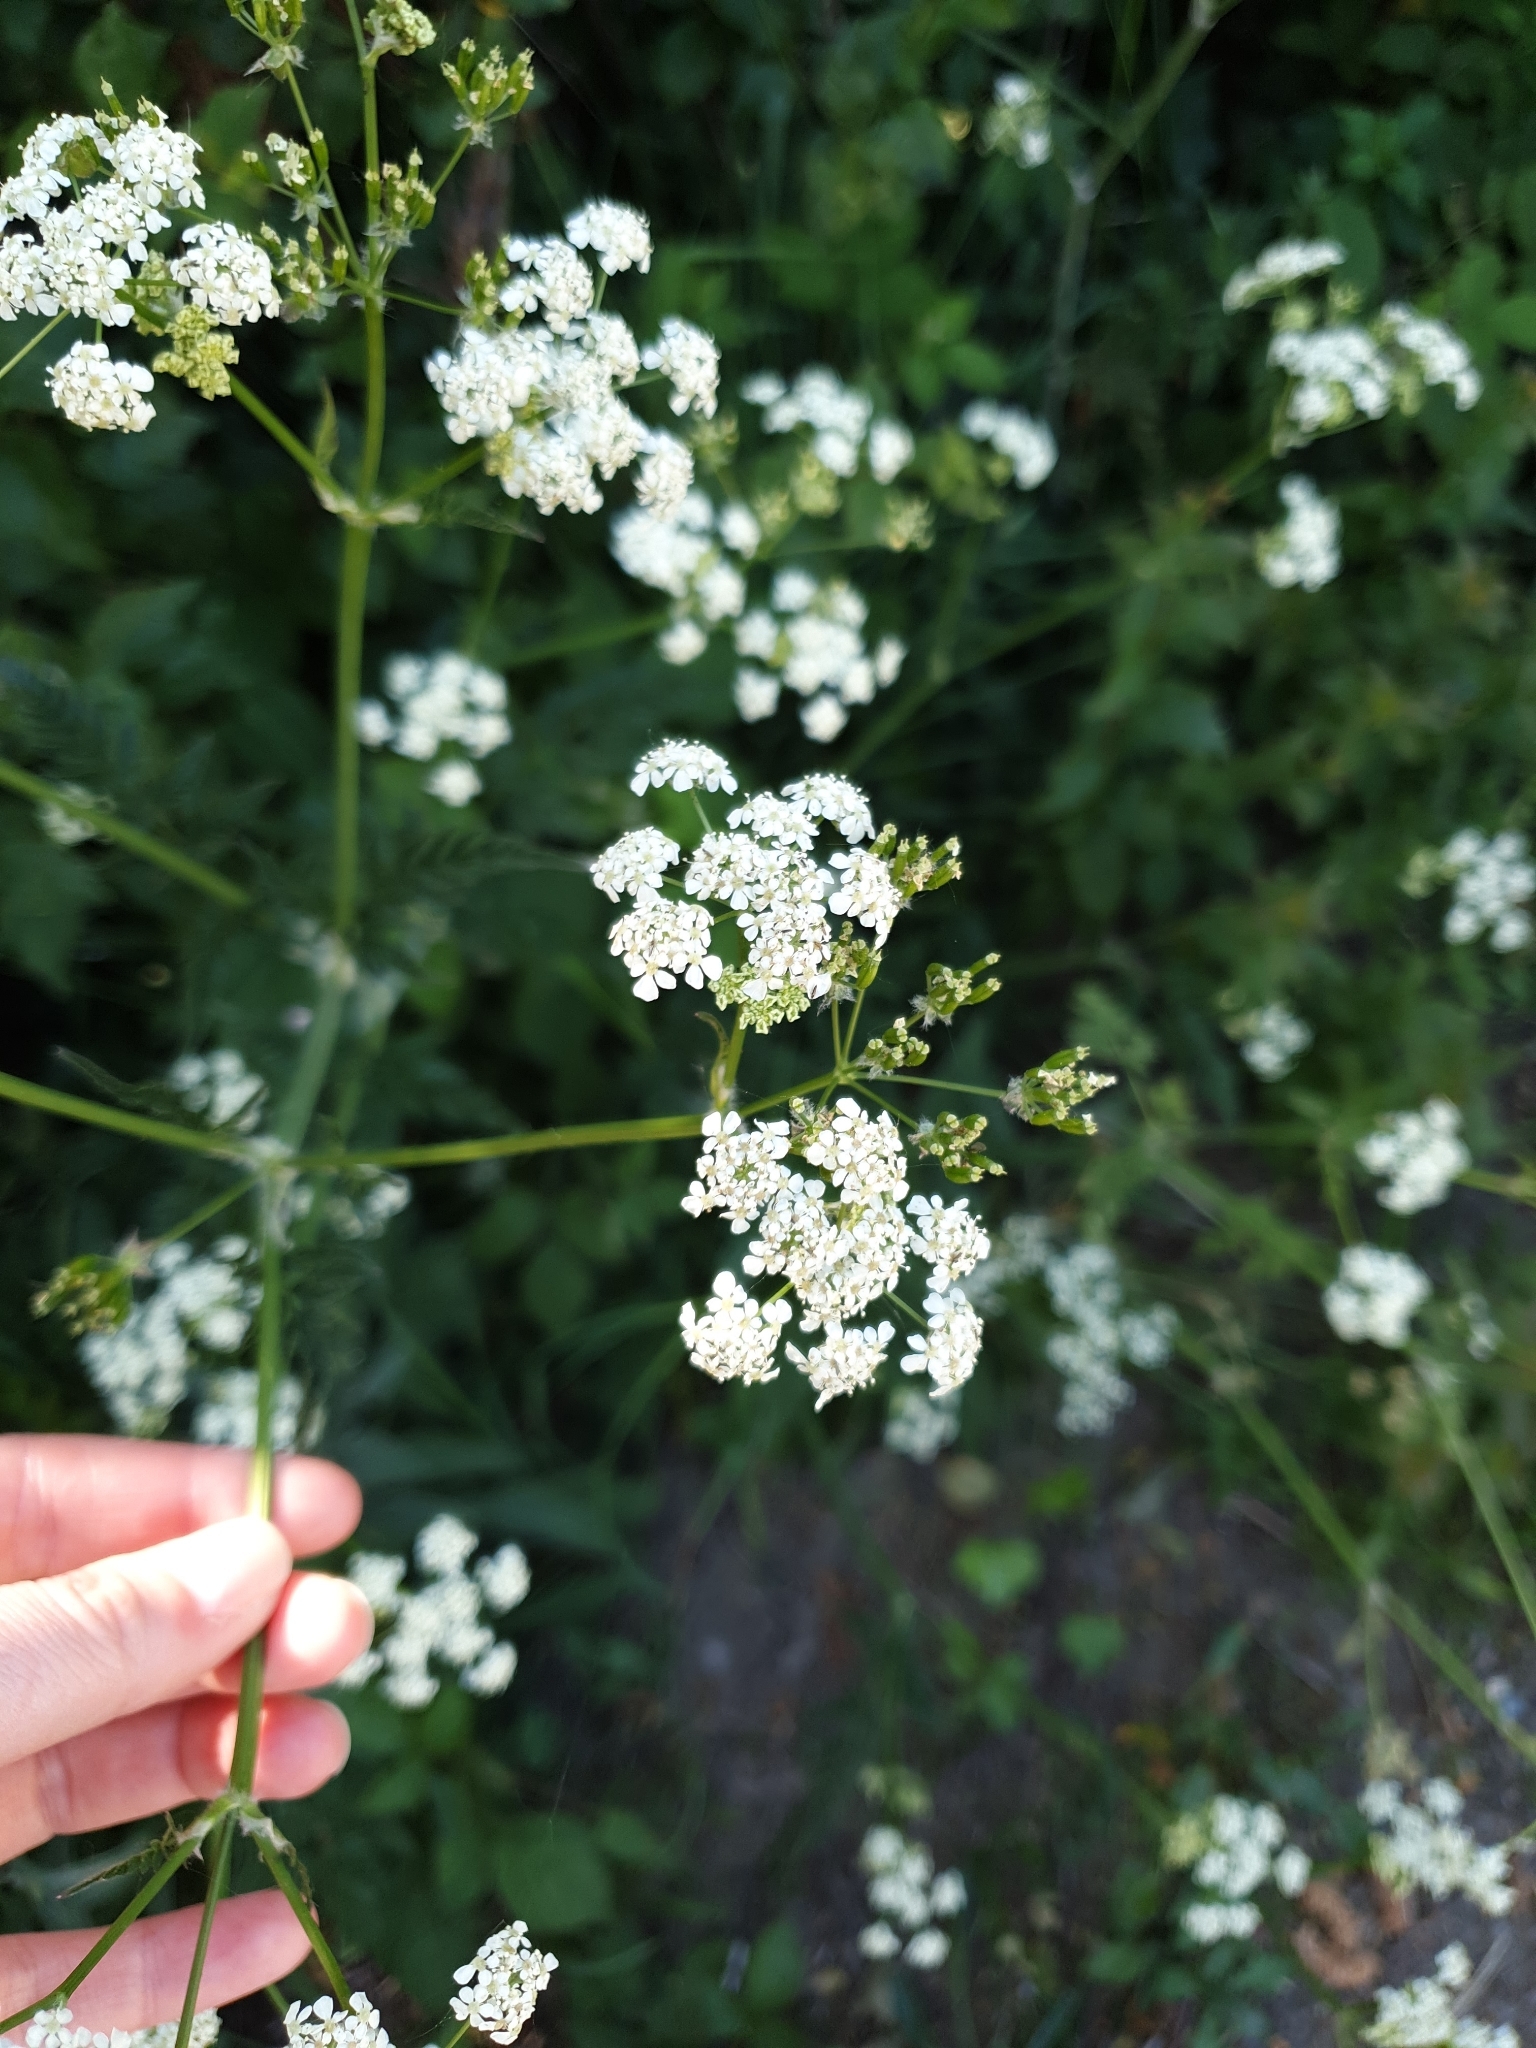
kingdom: Plantae
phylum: Tracheophyta
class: Magnoliopsida
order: Apiales
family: Apiaceae
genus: Anthriscus
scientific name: Anthriscus sylvestris
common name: Cow parsley
